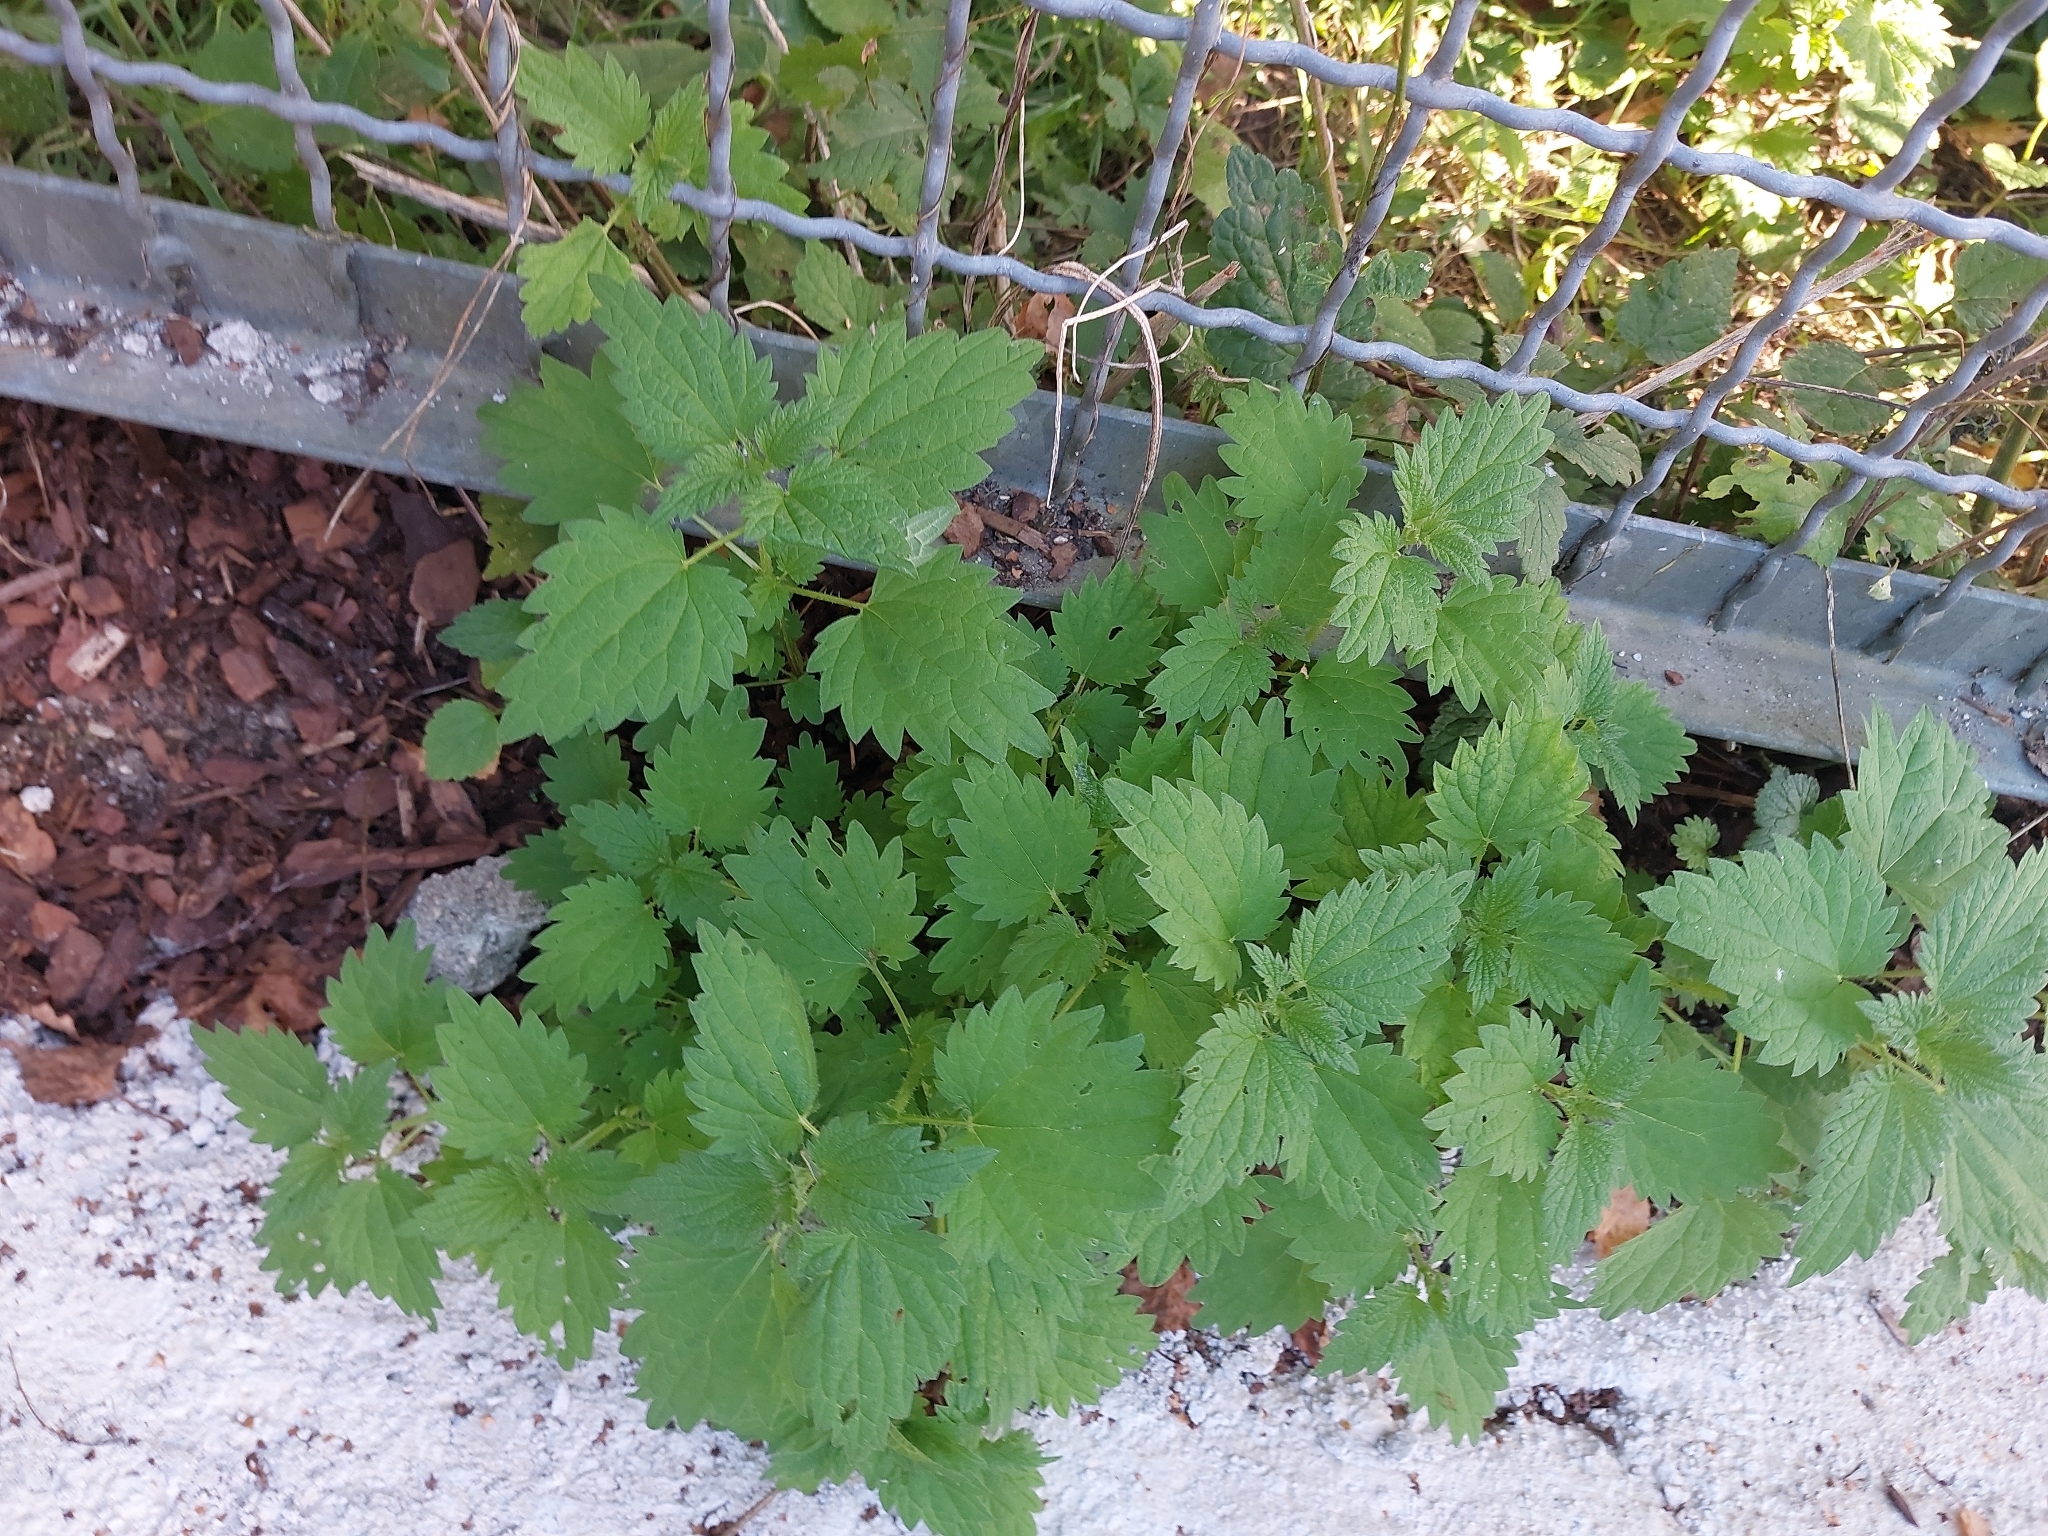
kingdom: Plantae
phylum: Tracheophyta
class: Magnoliopsida
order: Rosales
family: Urticaceae
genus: Urtica
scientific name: Urtica dioica
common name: Common nettle
